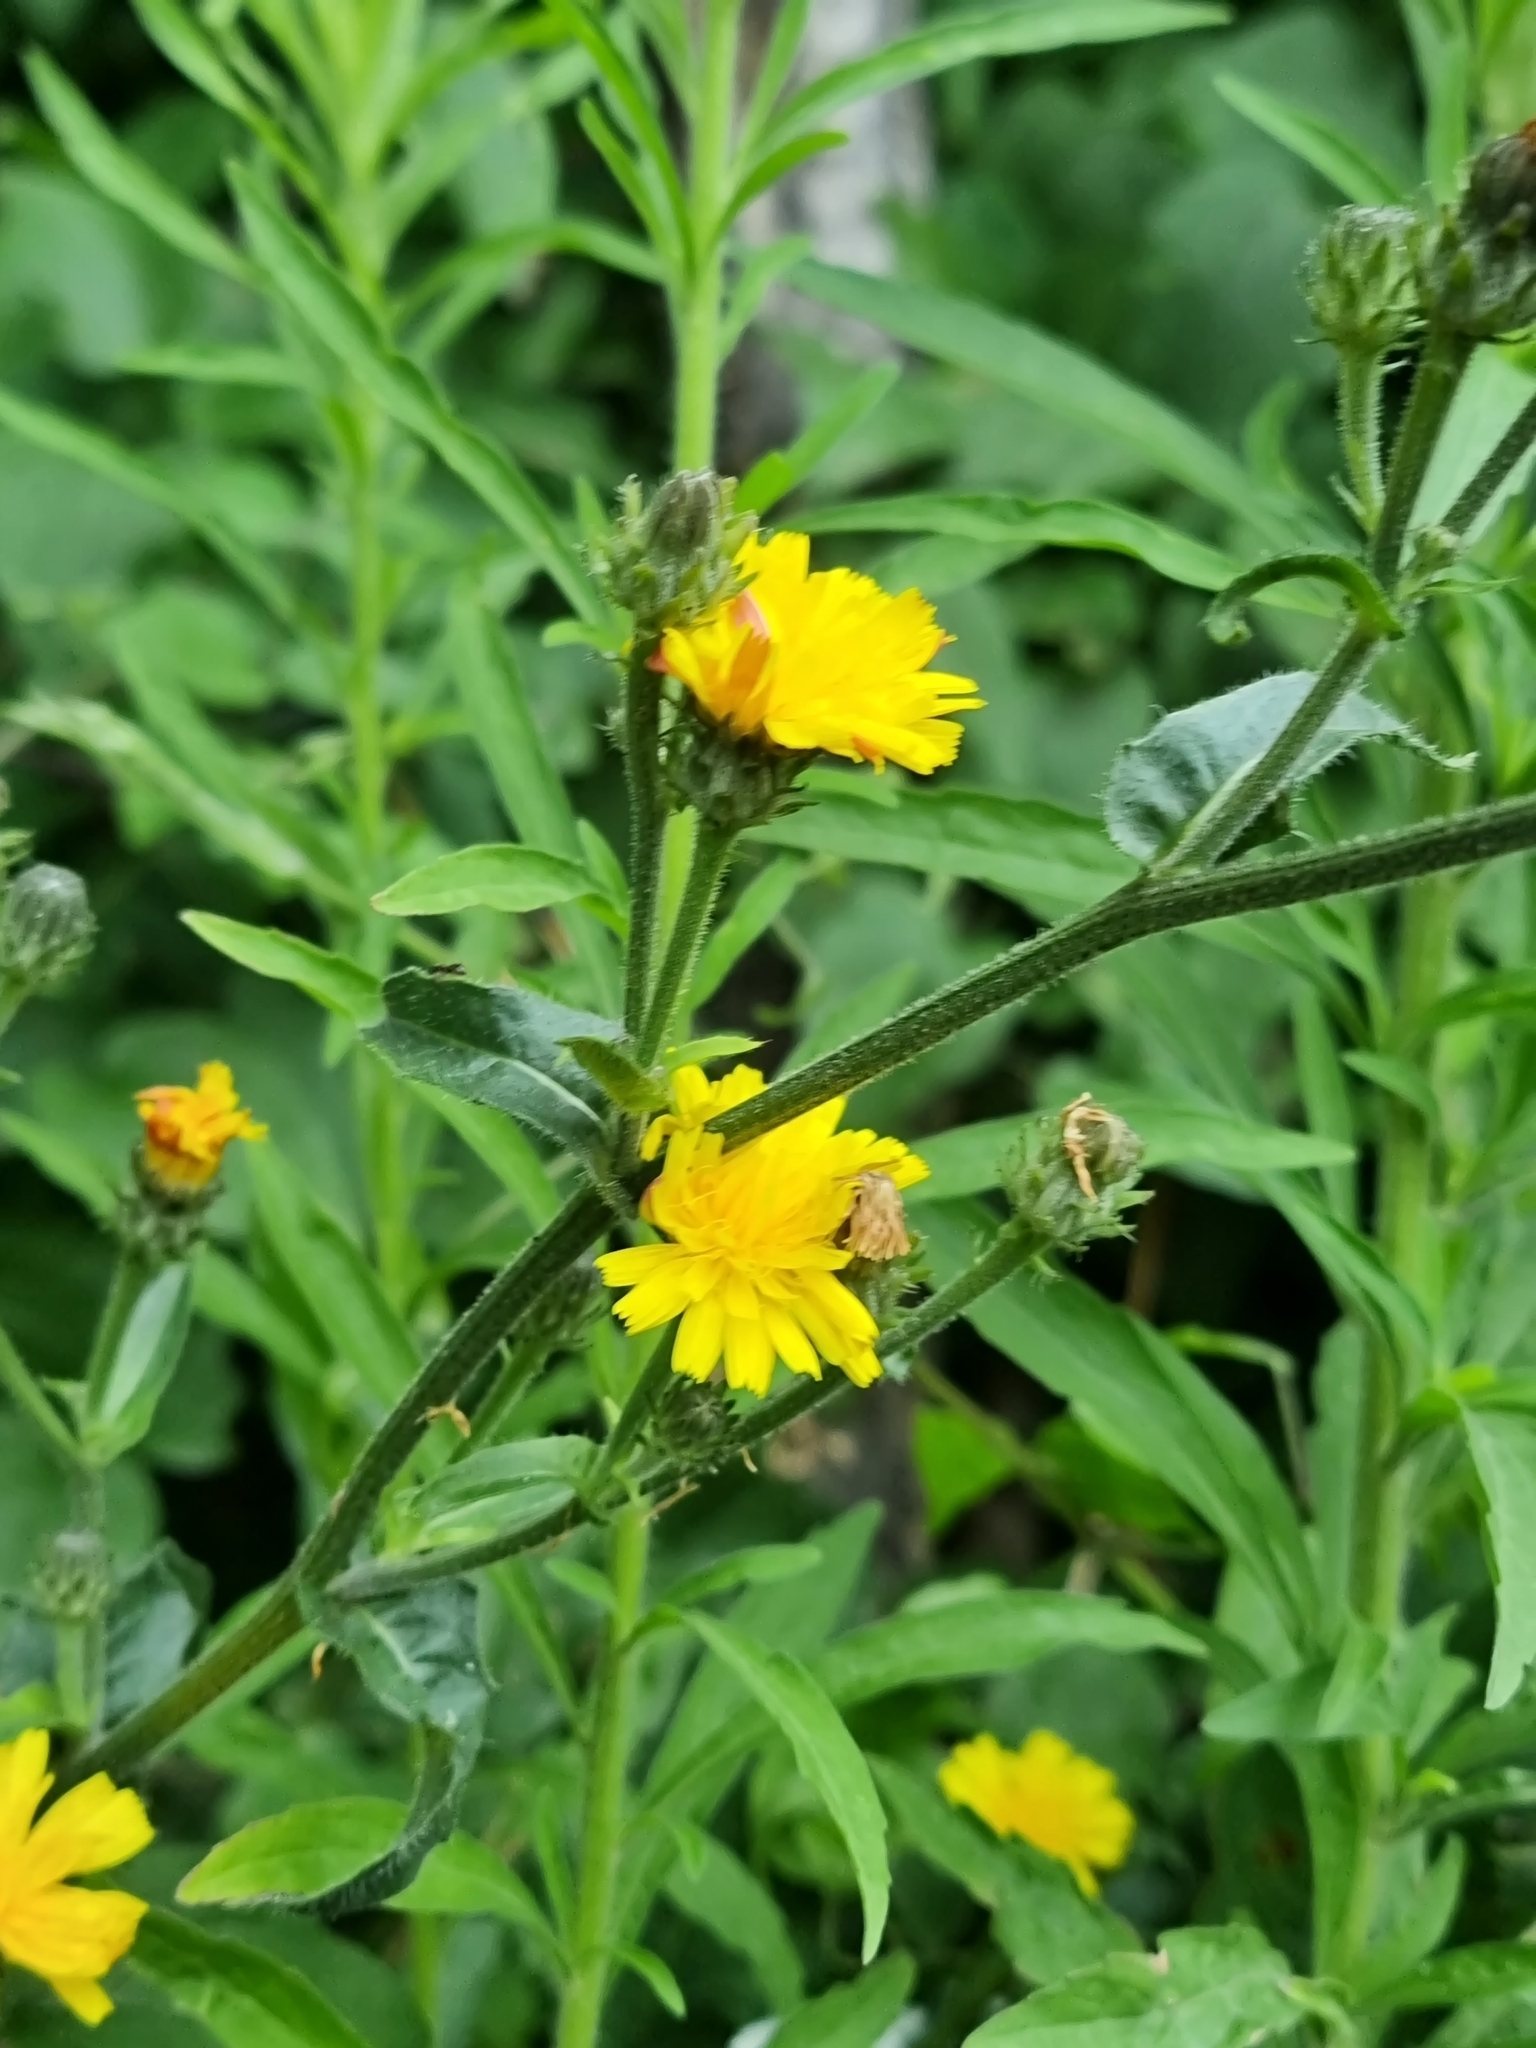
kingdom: Plantae
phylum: Tracheophyta
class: Magnoliopsida
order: Asterales
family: Asteraceae
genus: Picris
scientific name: Picris hieracioides
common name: Hawkweed oxtongue
